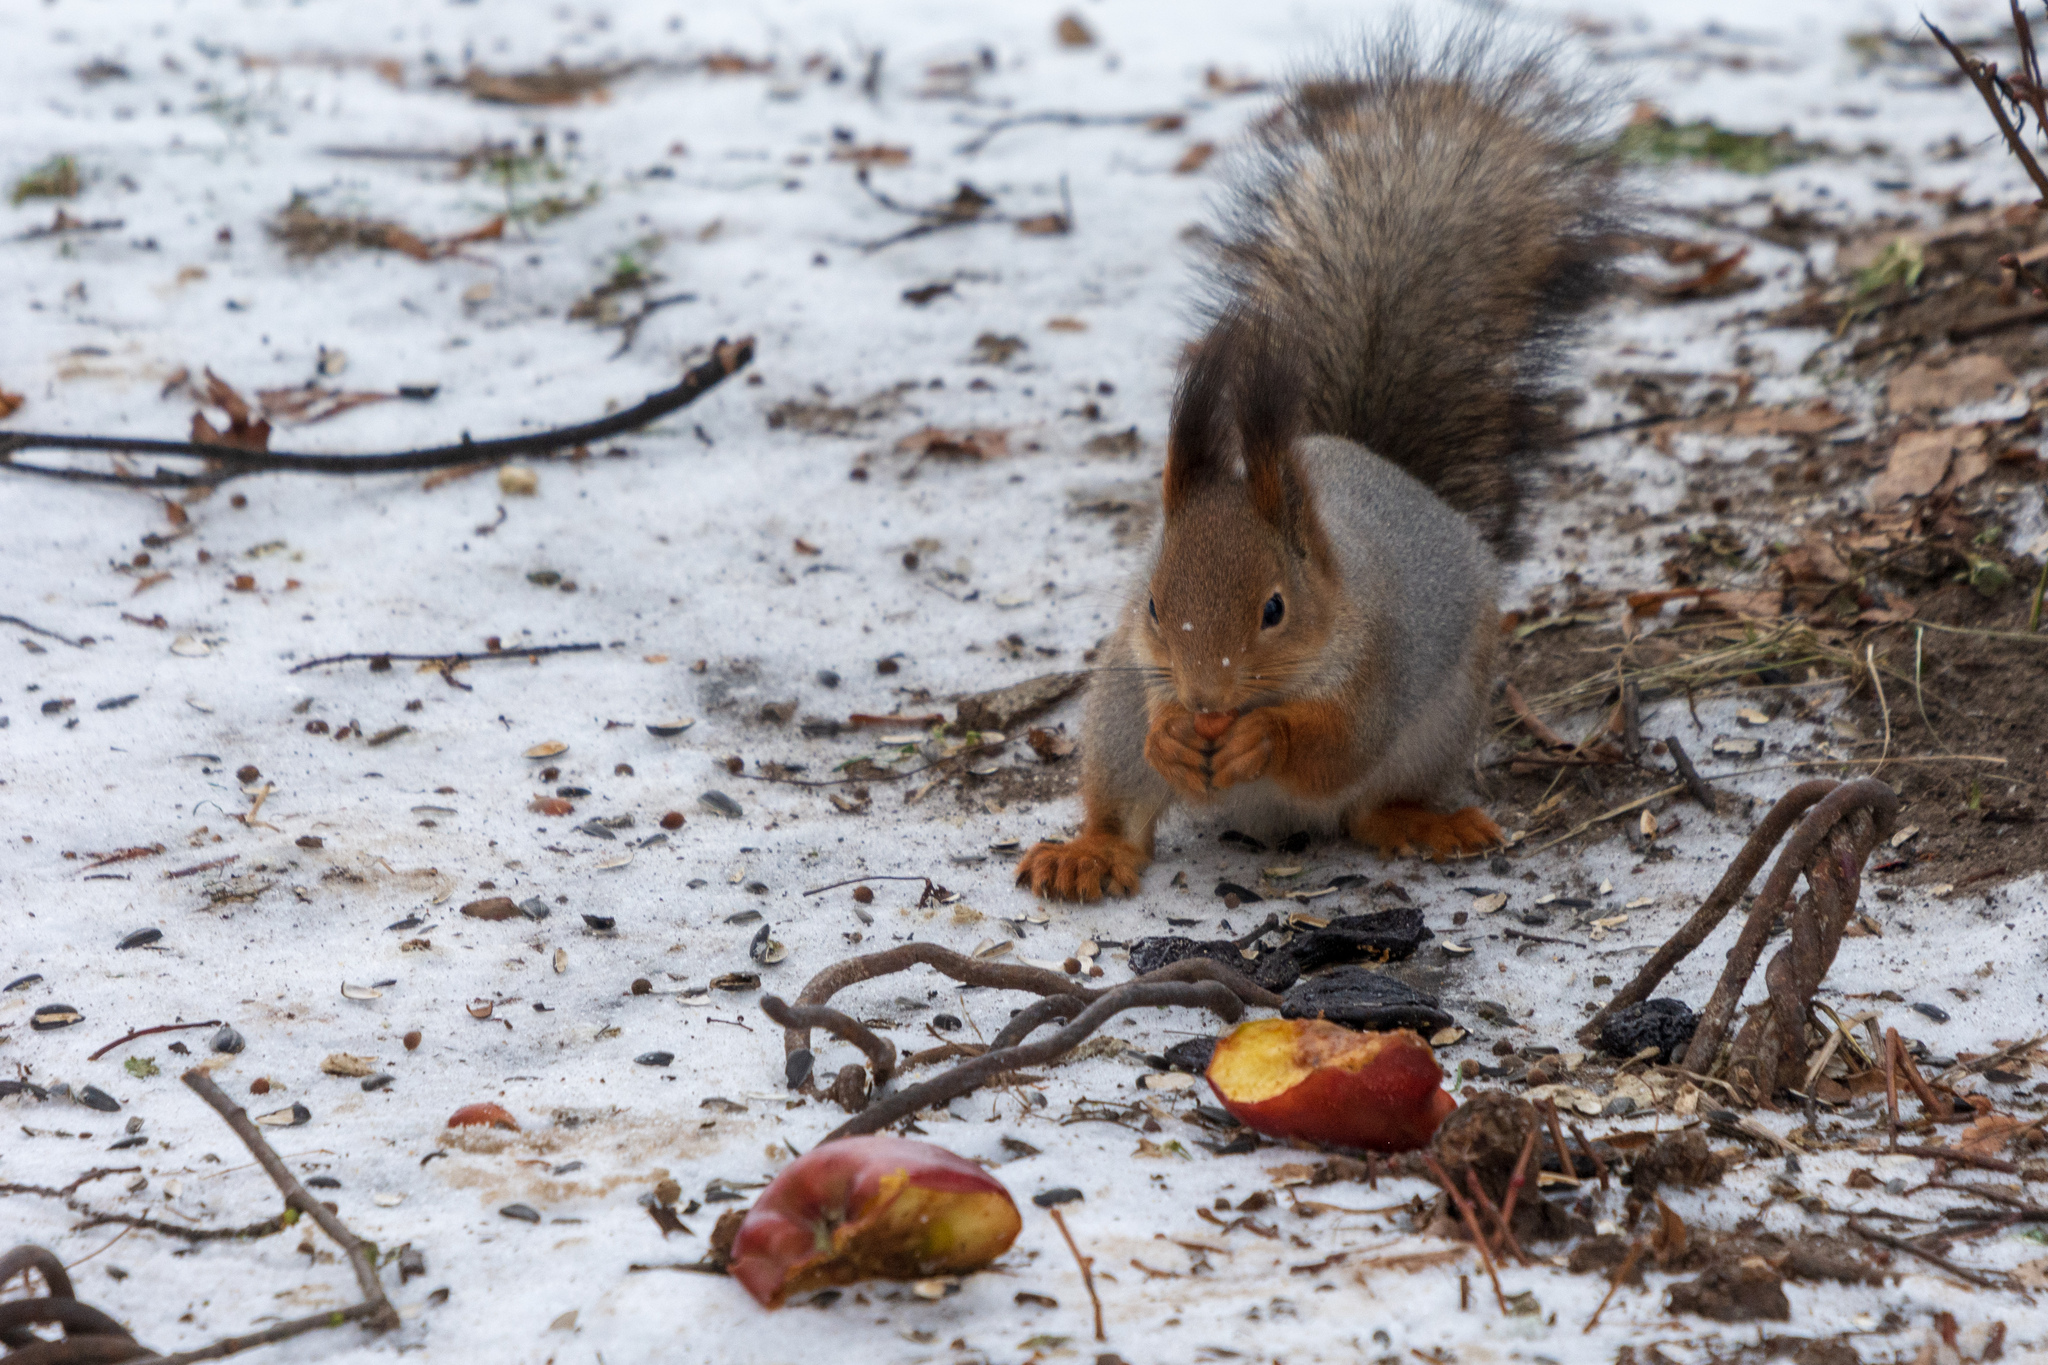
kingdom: Animalia
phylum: Chordata
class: Mammalia
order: Rodentia
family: Sciuridae
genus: Sciurus
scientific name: Sciurus vulgaris
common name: Eurasian red squirrel
